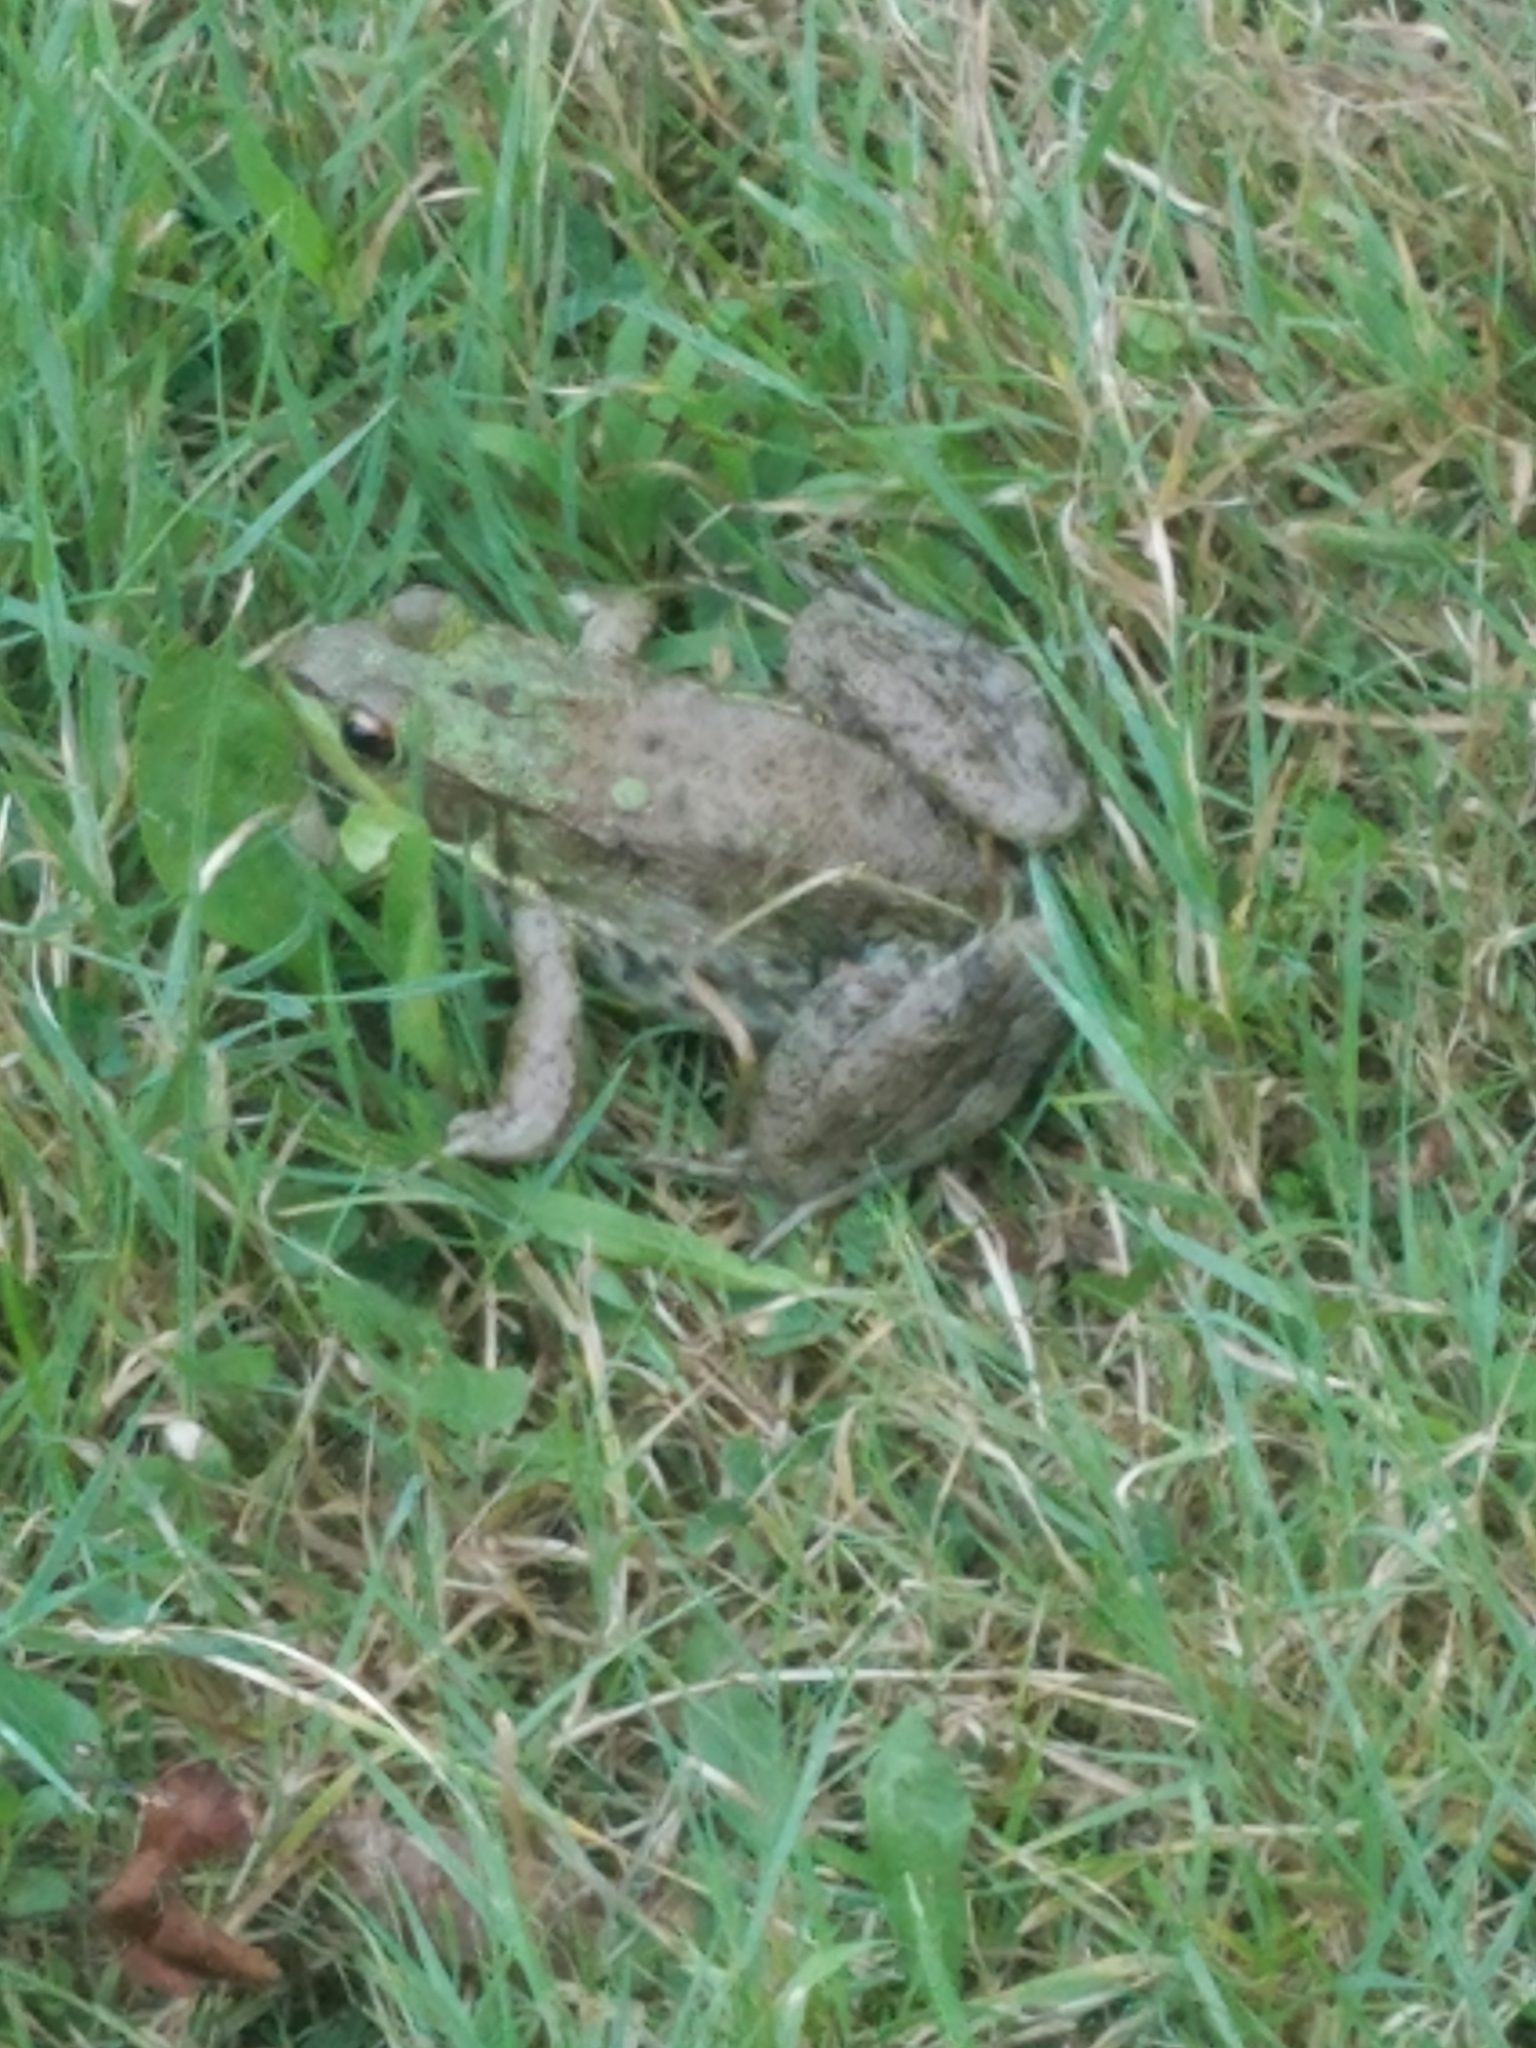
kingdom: Animalia
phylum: Chordata
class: Amphibia
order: Anura
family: Ranidae
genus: Lithobates
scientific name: Lithobates clamitans
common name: Green frog
